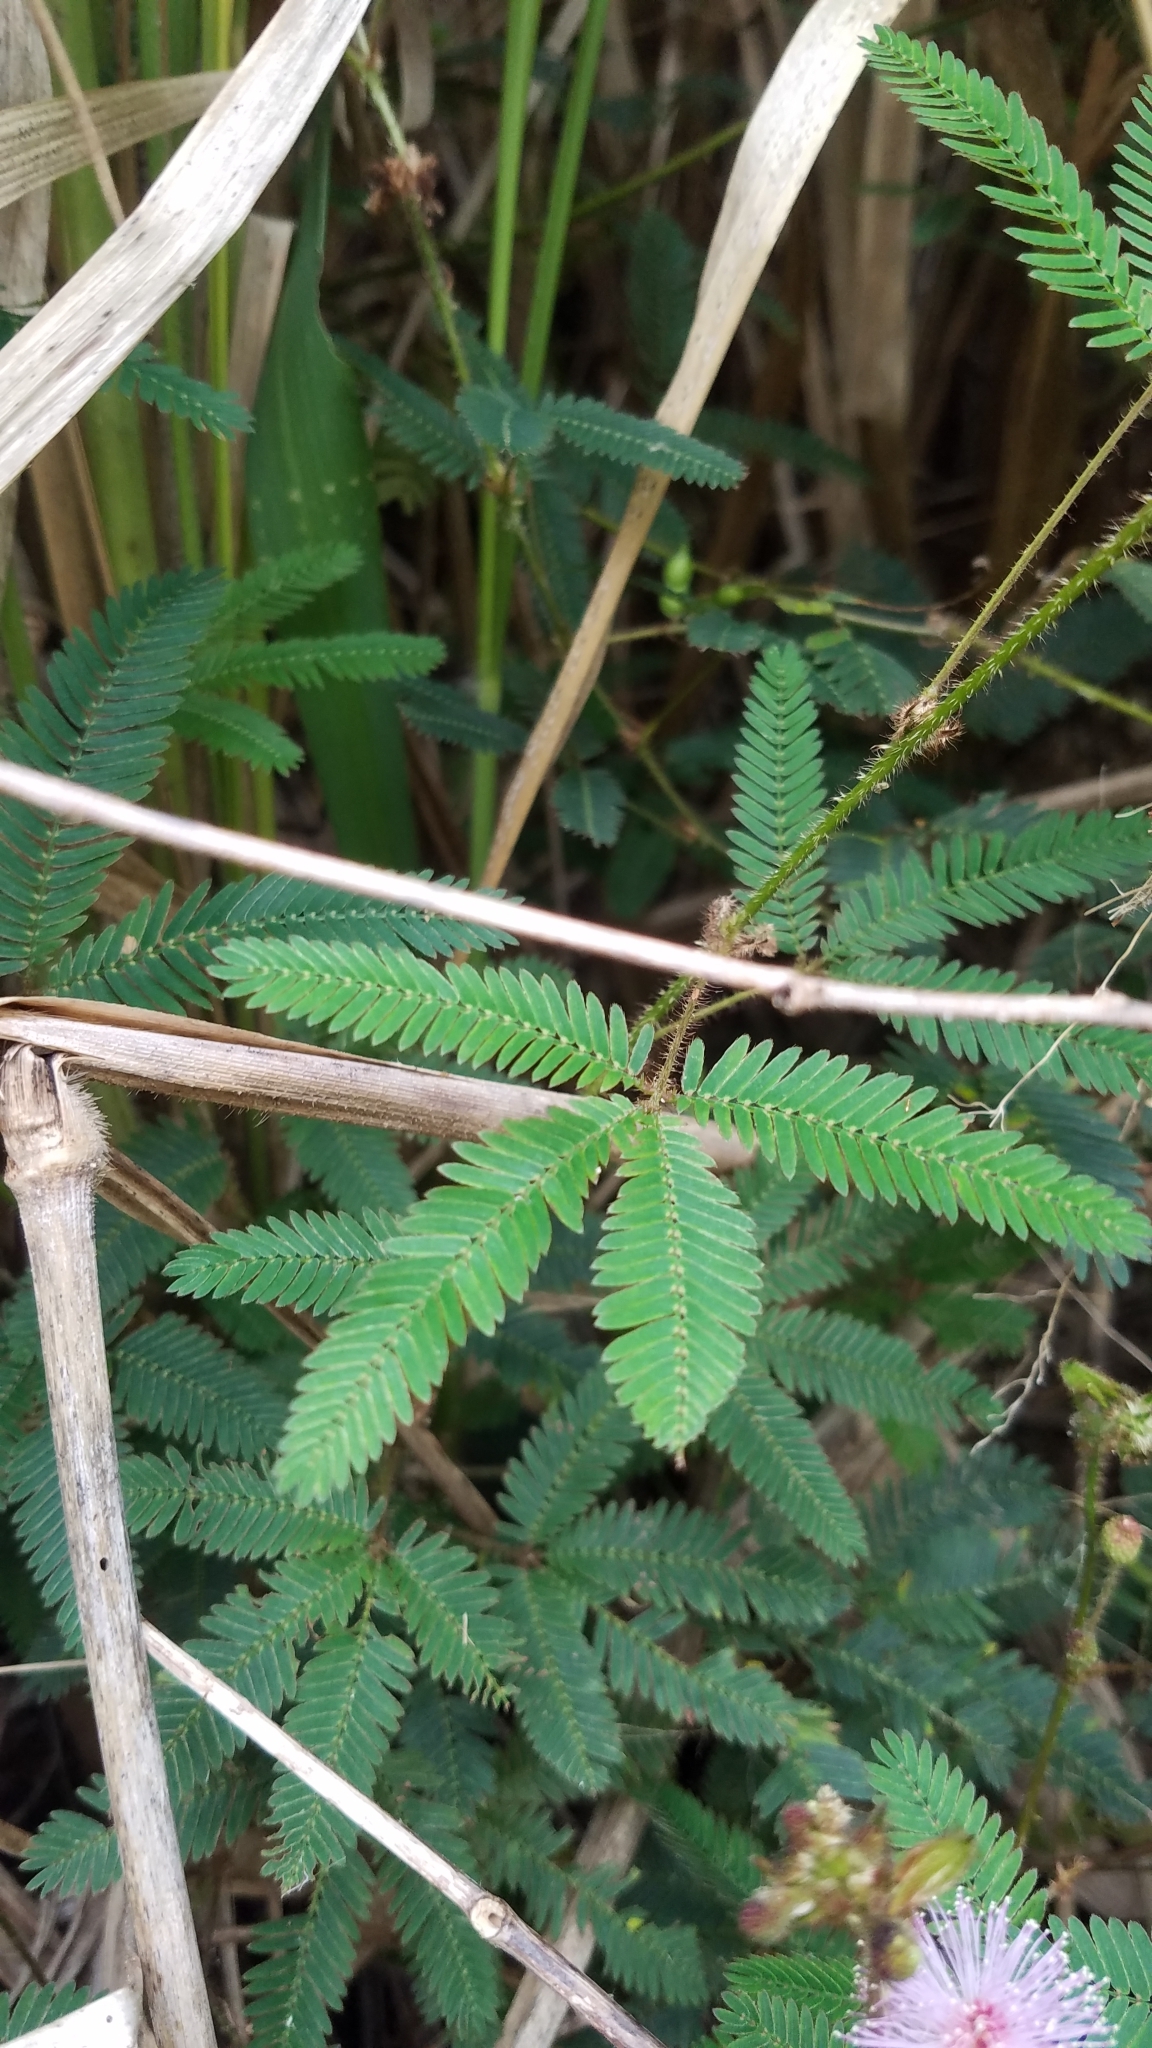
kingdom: Plantae
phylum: Tracheophyta
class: Magnoliopsida
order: Fabales
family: Fabaceae
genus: Mimosa
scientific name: Mimosa pudica
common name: Sensitive plant
